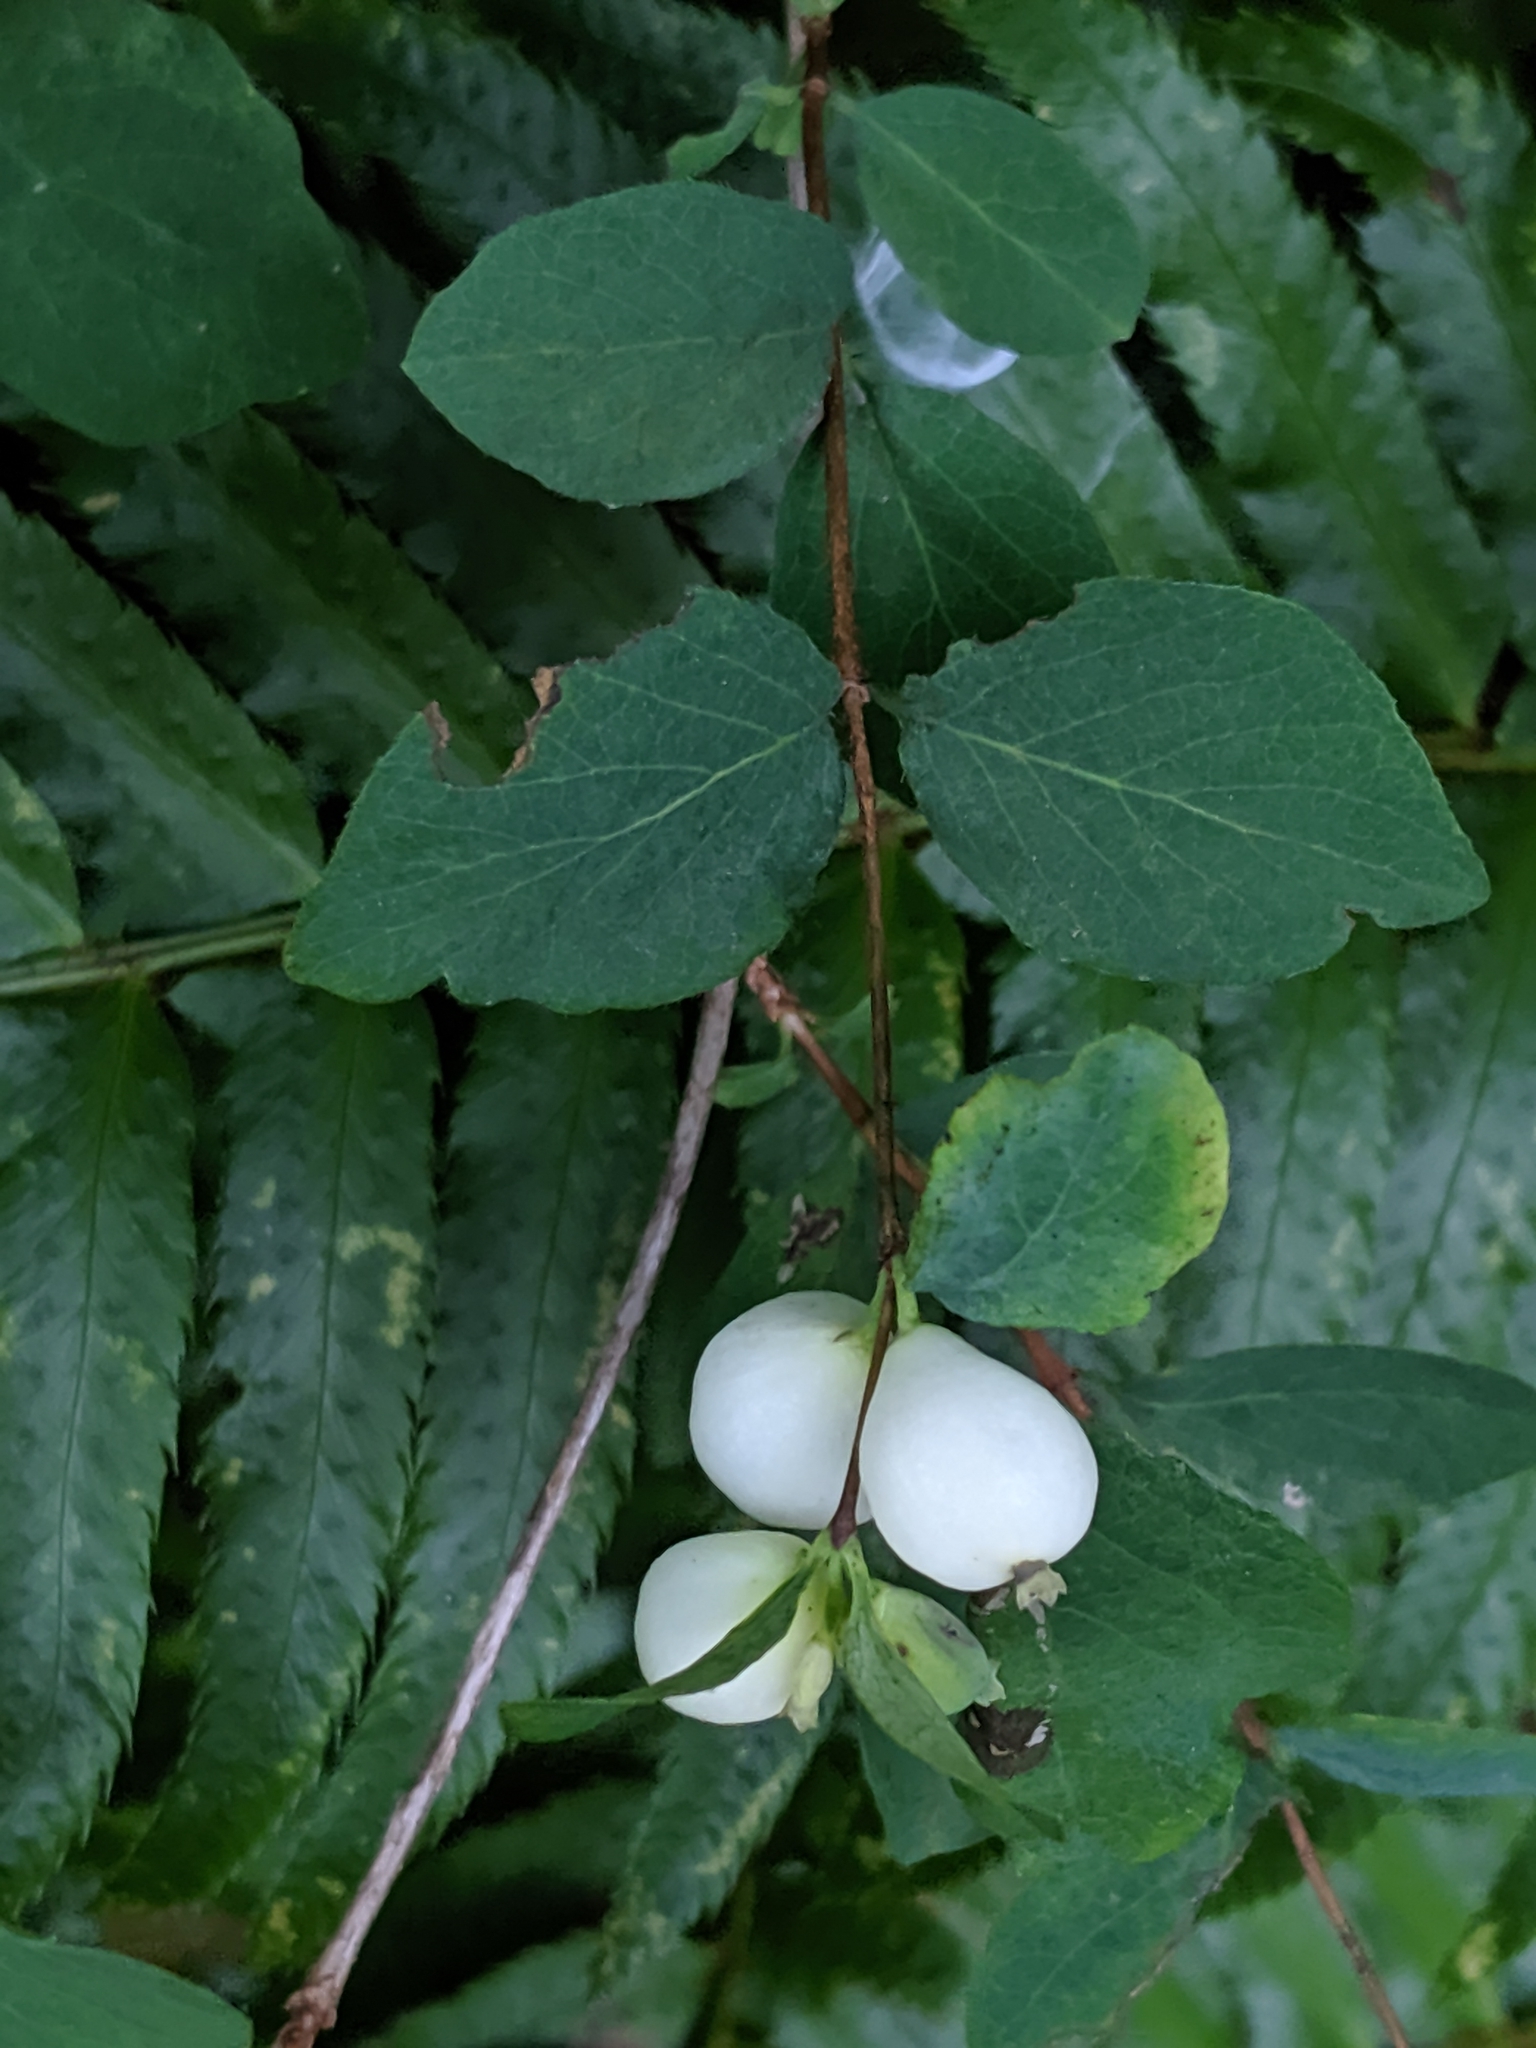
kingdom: Plantae
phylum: Tracheophyta
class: Magnoliopsida
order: Dipsacales
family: Caprifoliaceae
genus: Symphoricarpos
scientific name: Symphoricarpos albus
